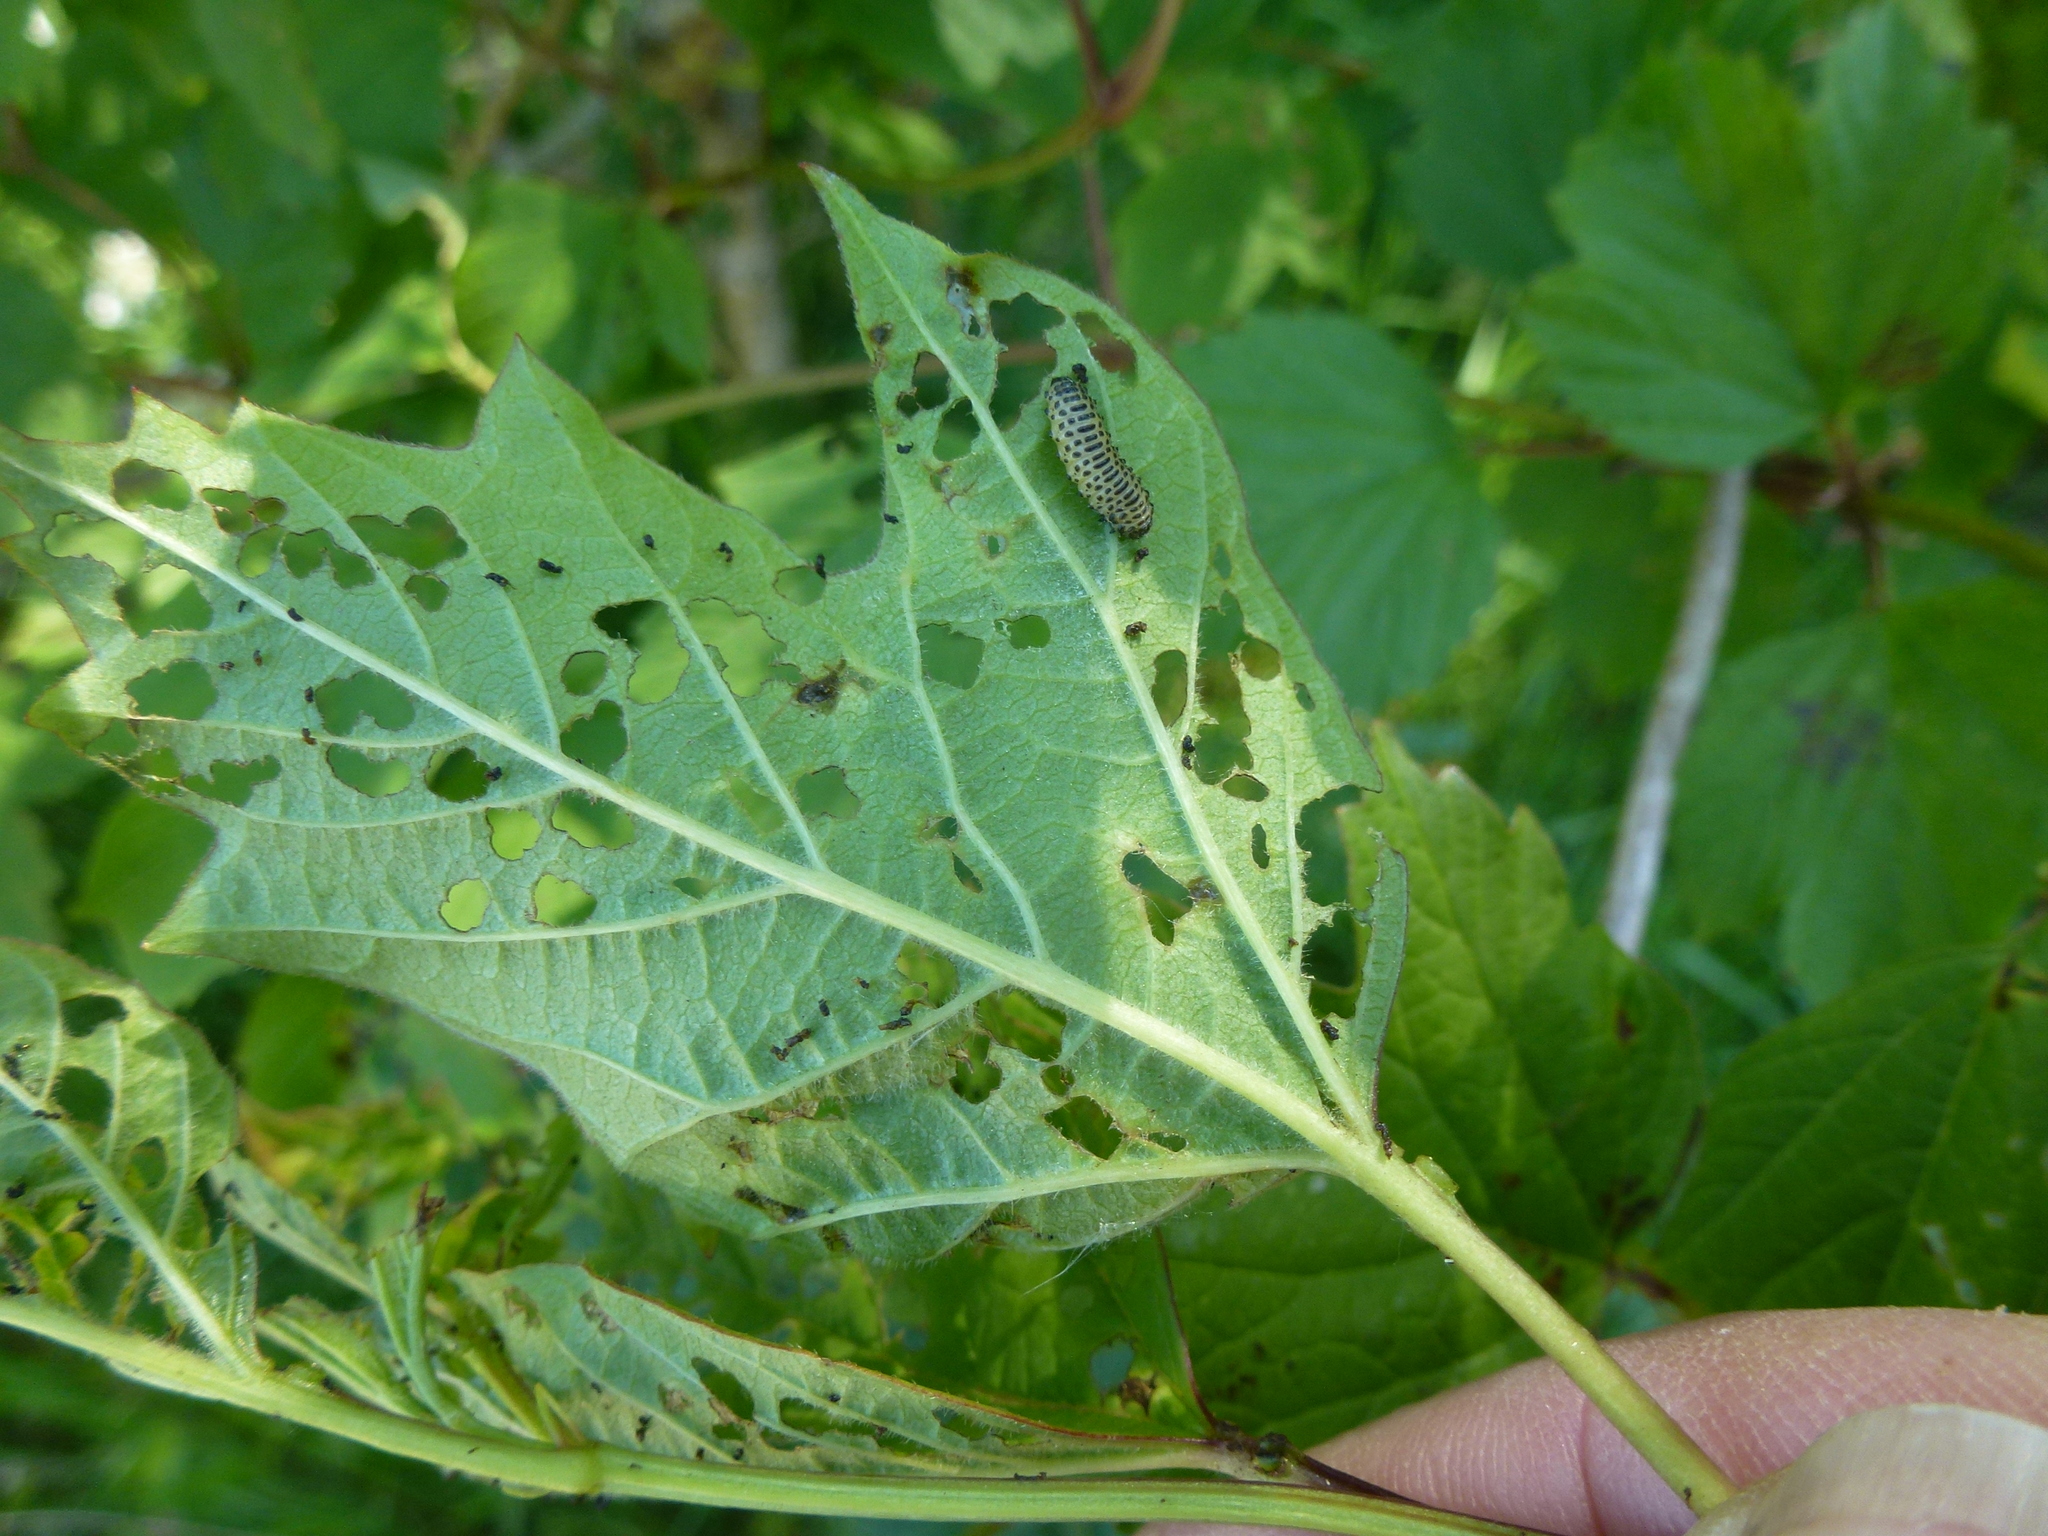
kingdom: Animalia
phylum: Arthropoda
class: Insecta
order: Coleoptera
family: Chrysomelidae
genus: Pyrrhalta
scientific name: Pyrrhalta viburni
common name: Guelder-rose leaf beetle
